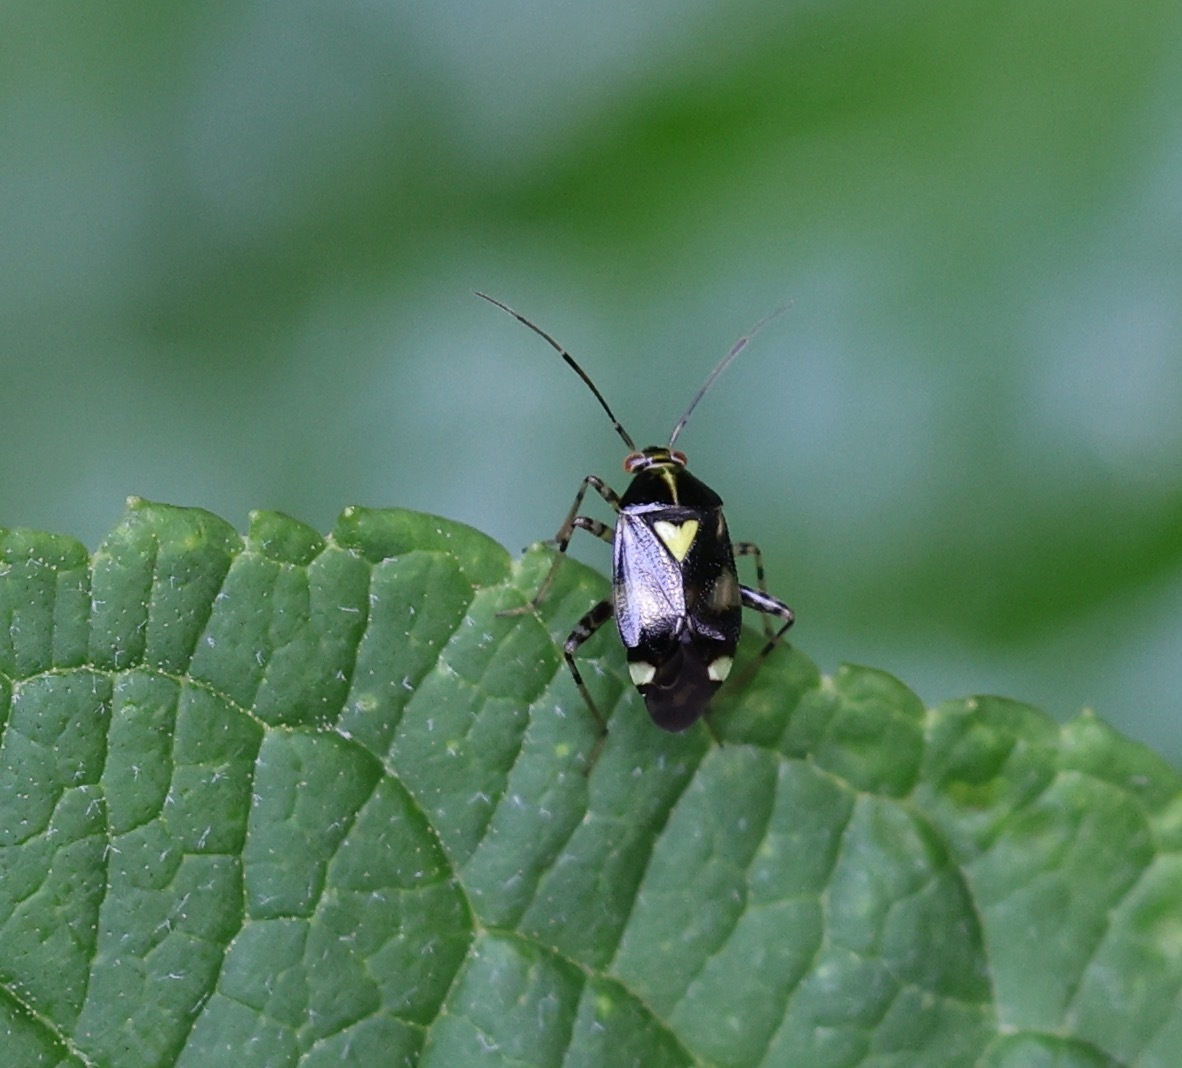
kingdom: Animalia
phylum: Arthropoda
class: Insecta
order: Hemiptera
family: Miridae
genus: Liocoris
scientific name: Liocoris tripustulatus
